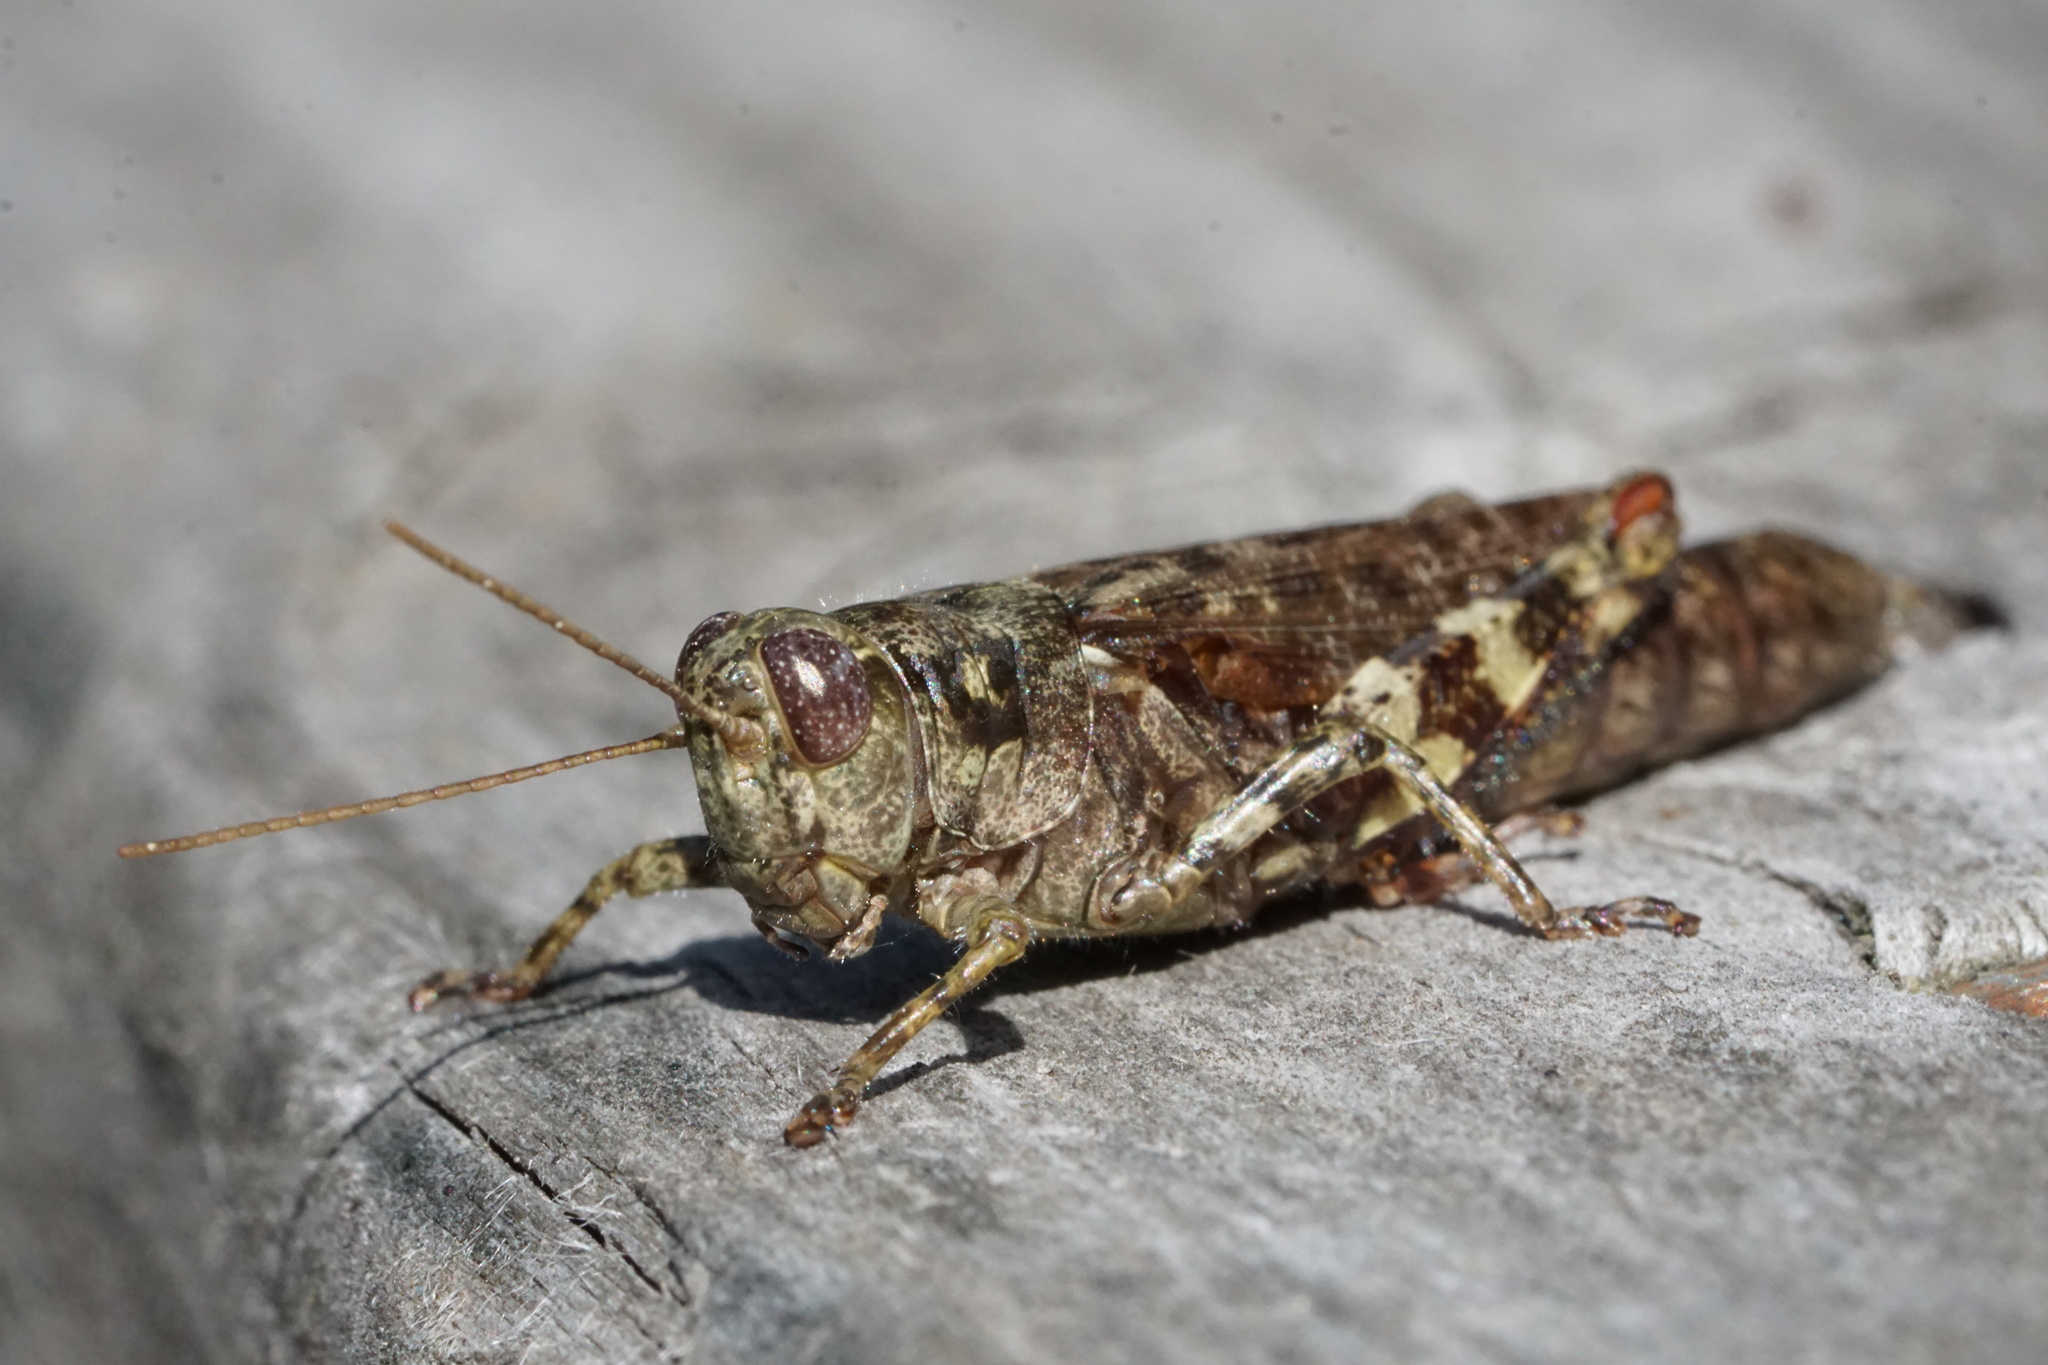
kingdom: Animalia
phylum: Arthropoda
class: Insecta
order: Orthoptera
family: Acrididae
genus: Melanoplus
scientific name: Melanoplus punctulatus
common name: Pine-tree spur-throat grasshopper
